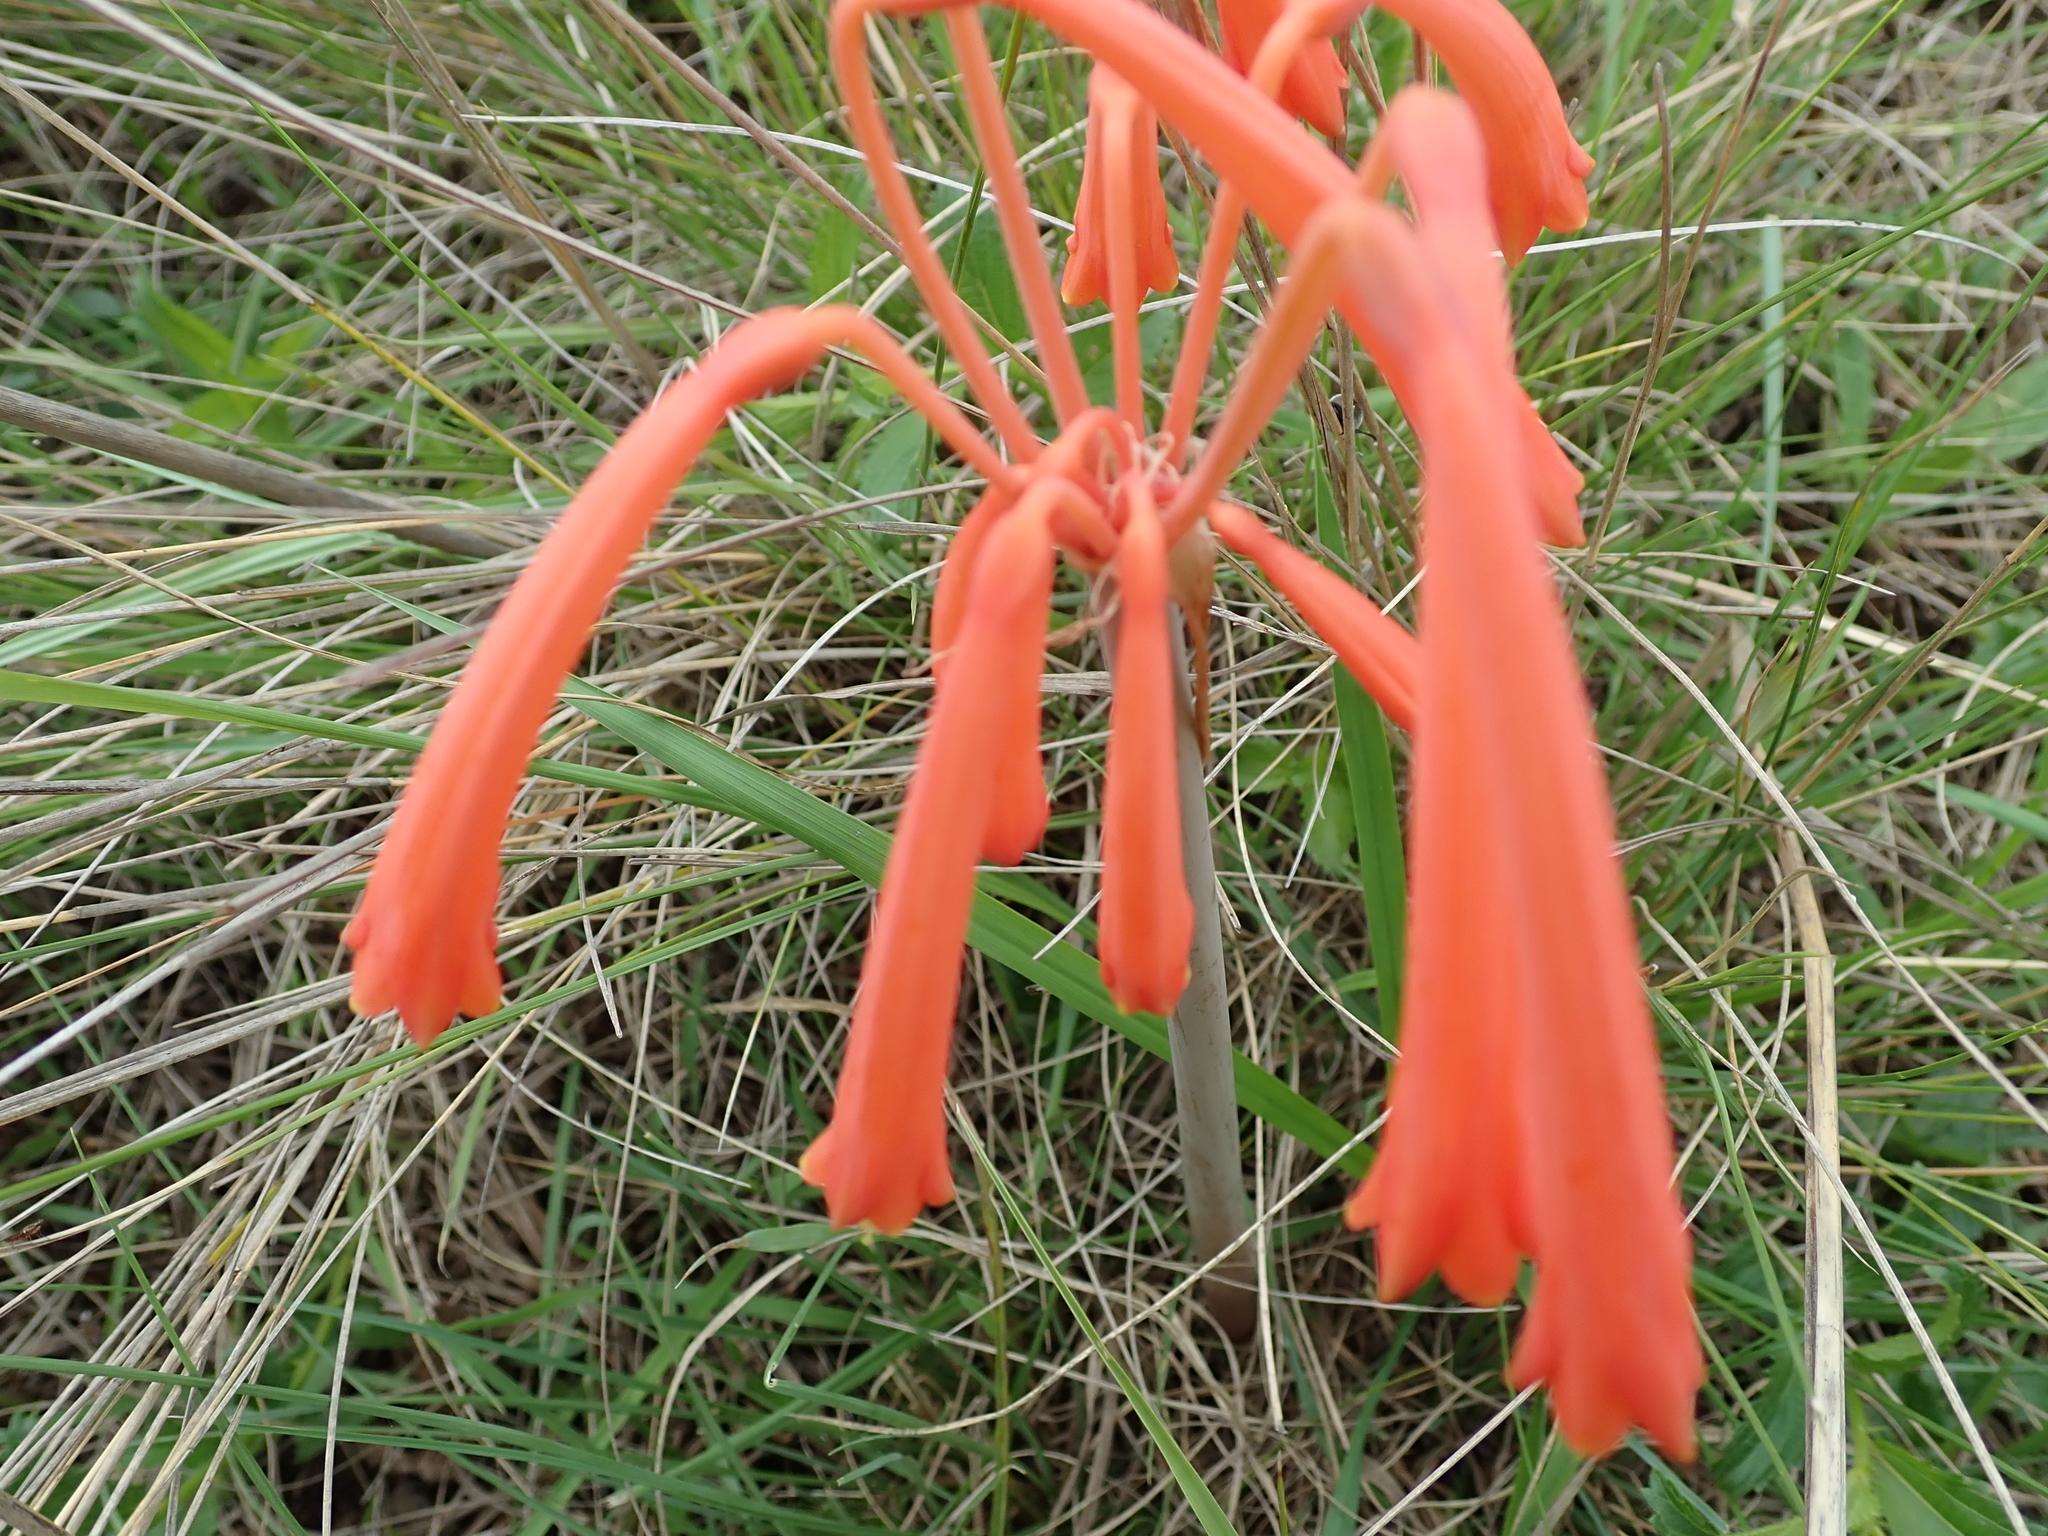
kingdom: Plantae
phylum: Tracheophyta
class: Liliopsida
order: Asparagales
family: Amaryllidaceae
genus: Cyrtanthus
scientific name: Cyrtanthus tuckii
